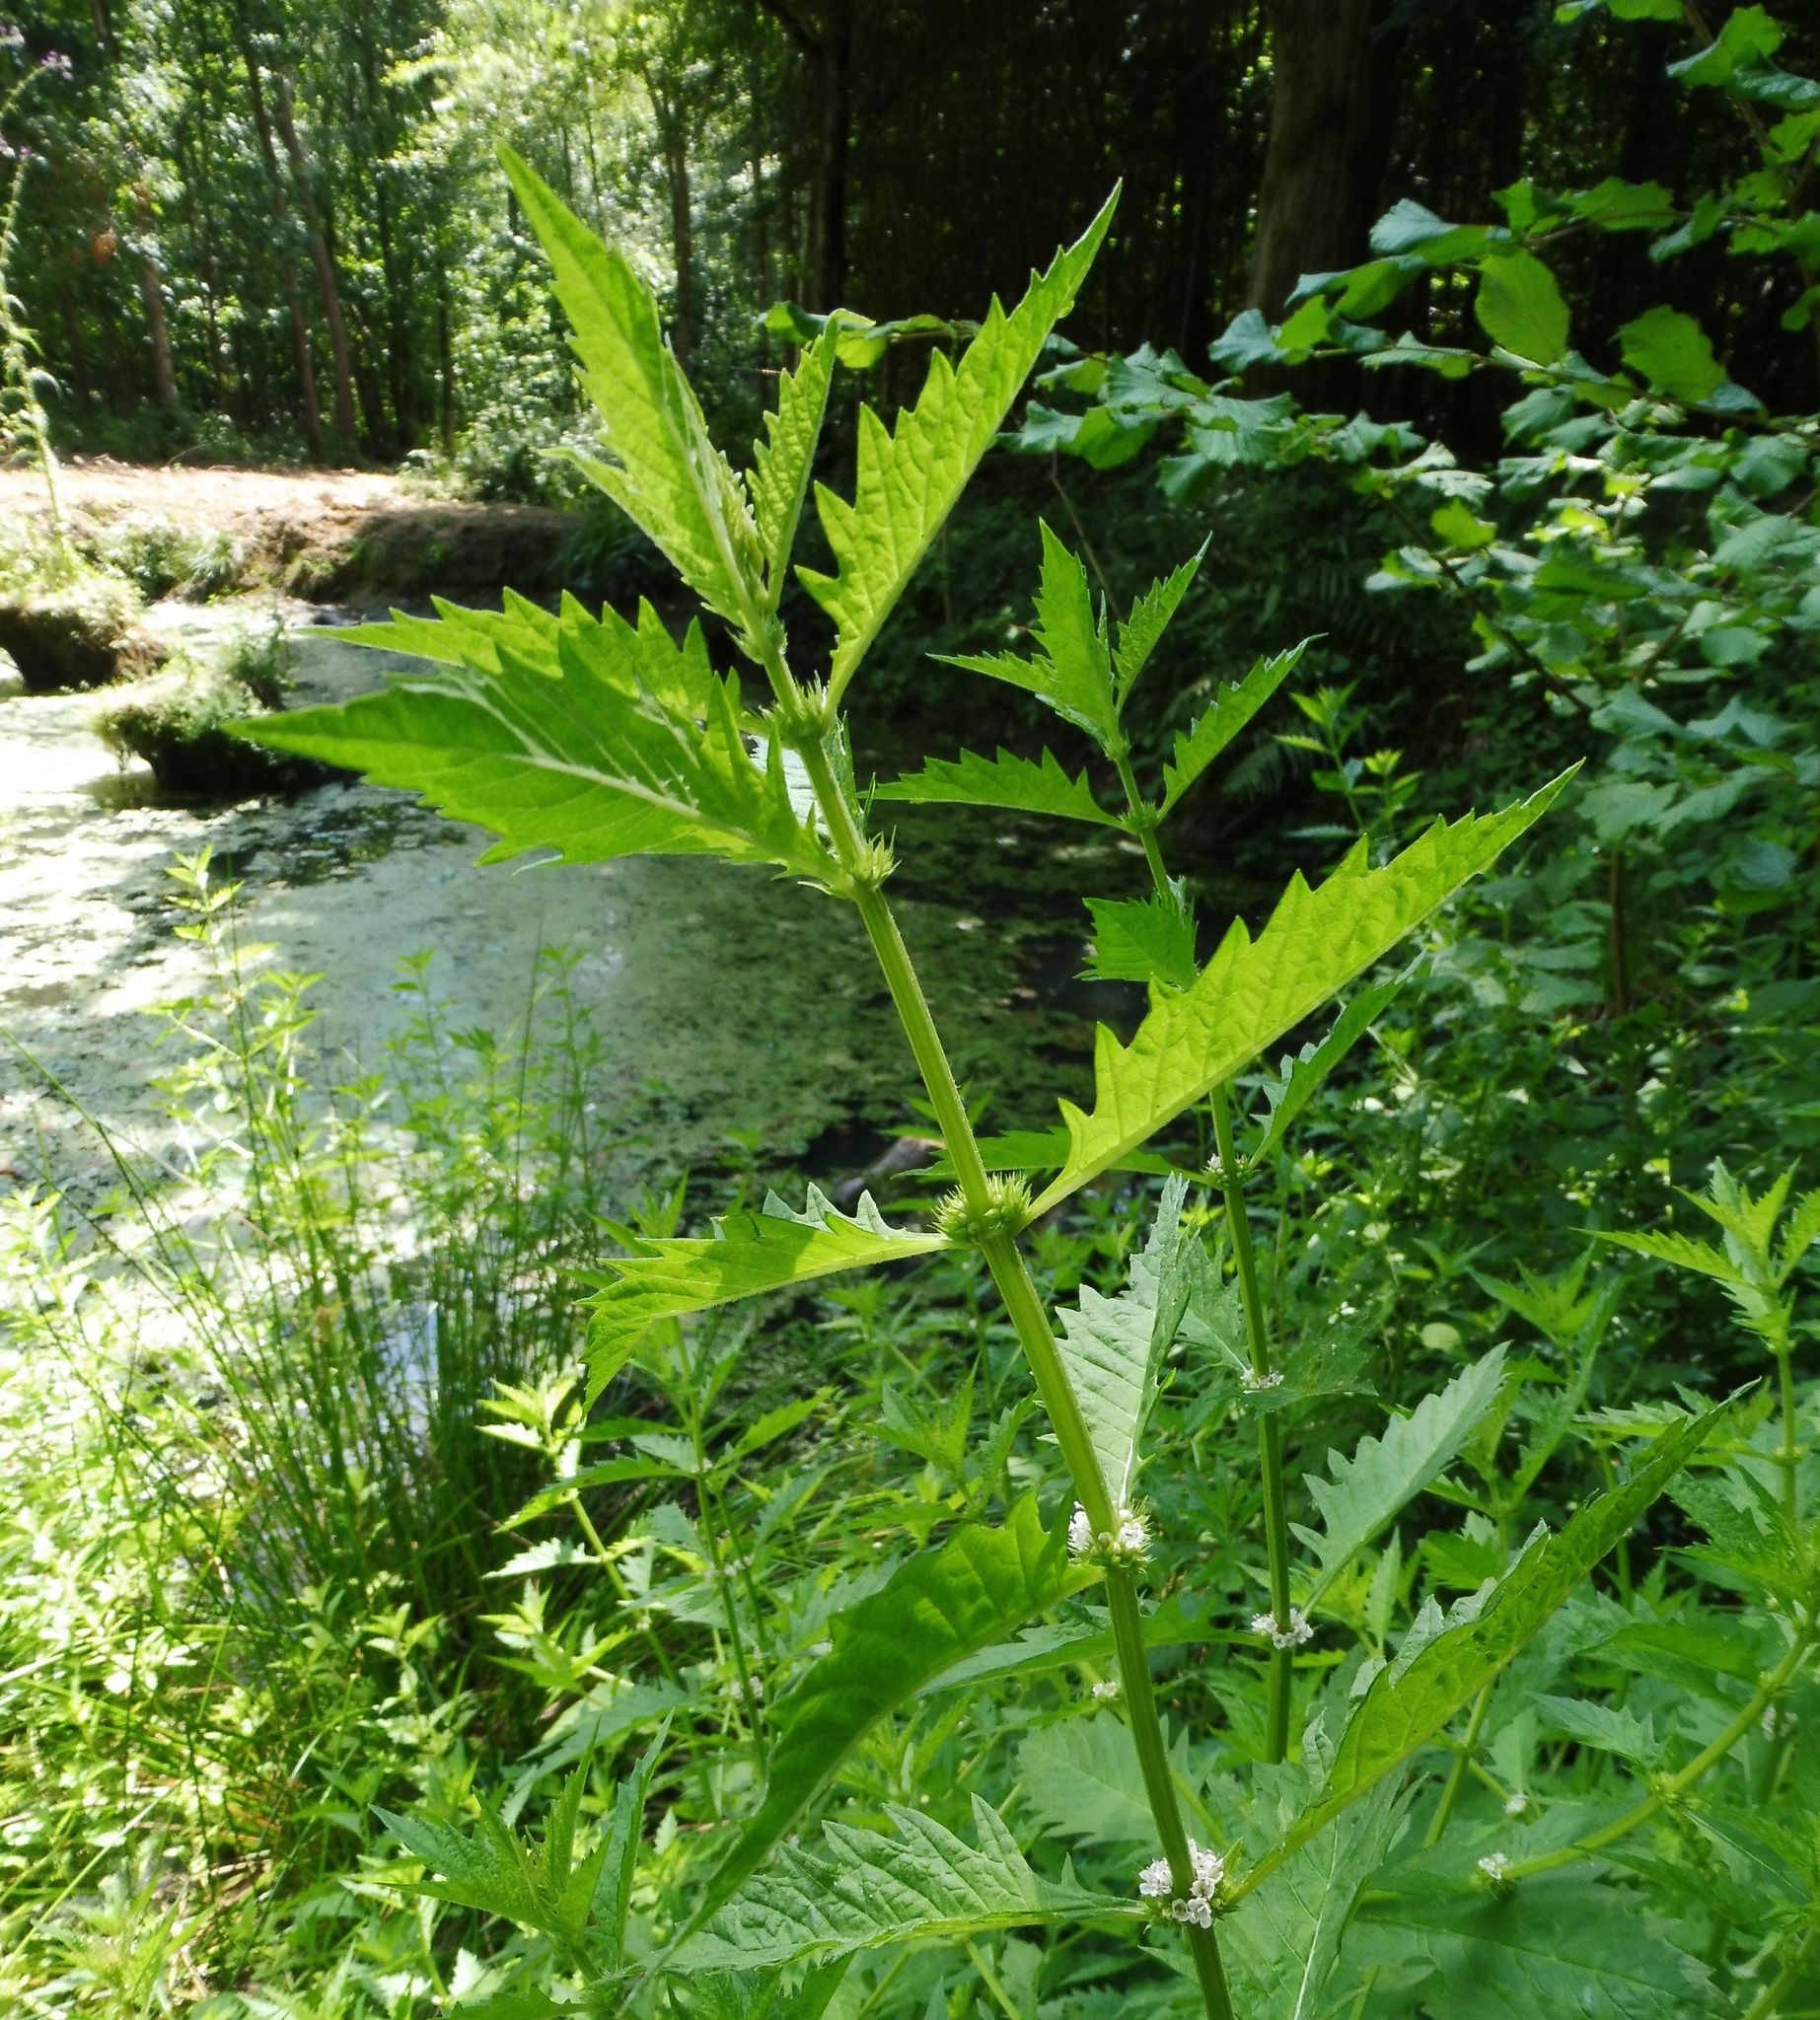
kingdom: Plantae
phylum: Tracheophyta
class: Magnoliopsida
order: Lamiales
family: Lamiaceae
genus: Lycopus
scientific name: Lycopus europaeus
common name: European bugleweed
